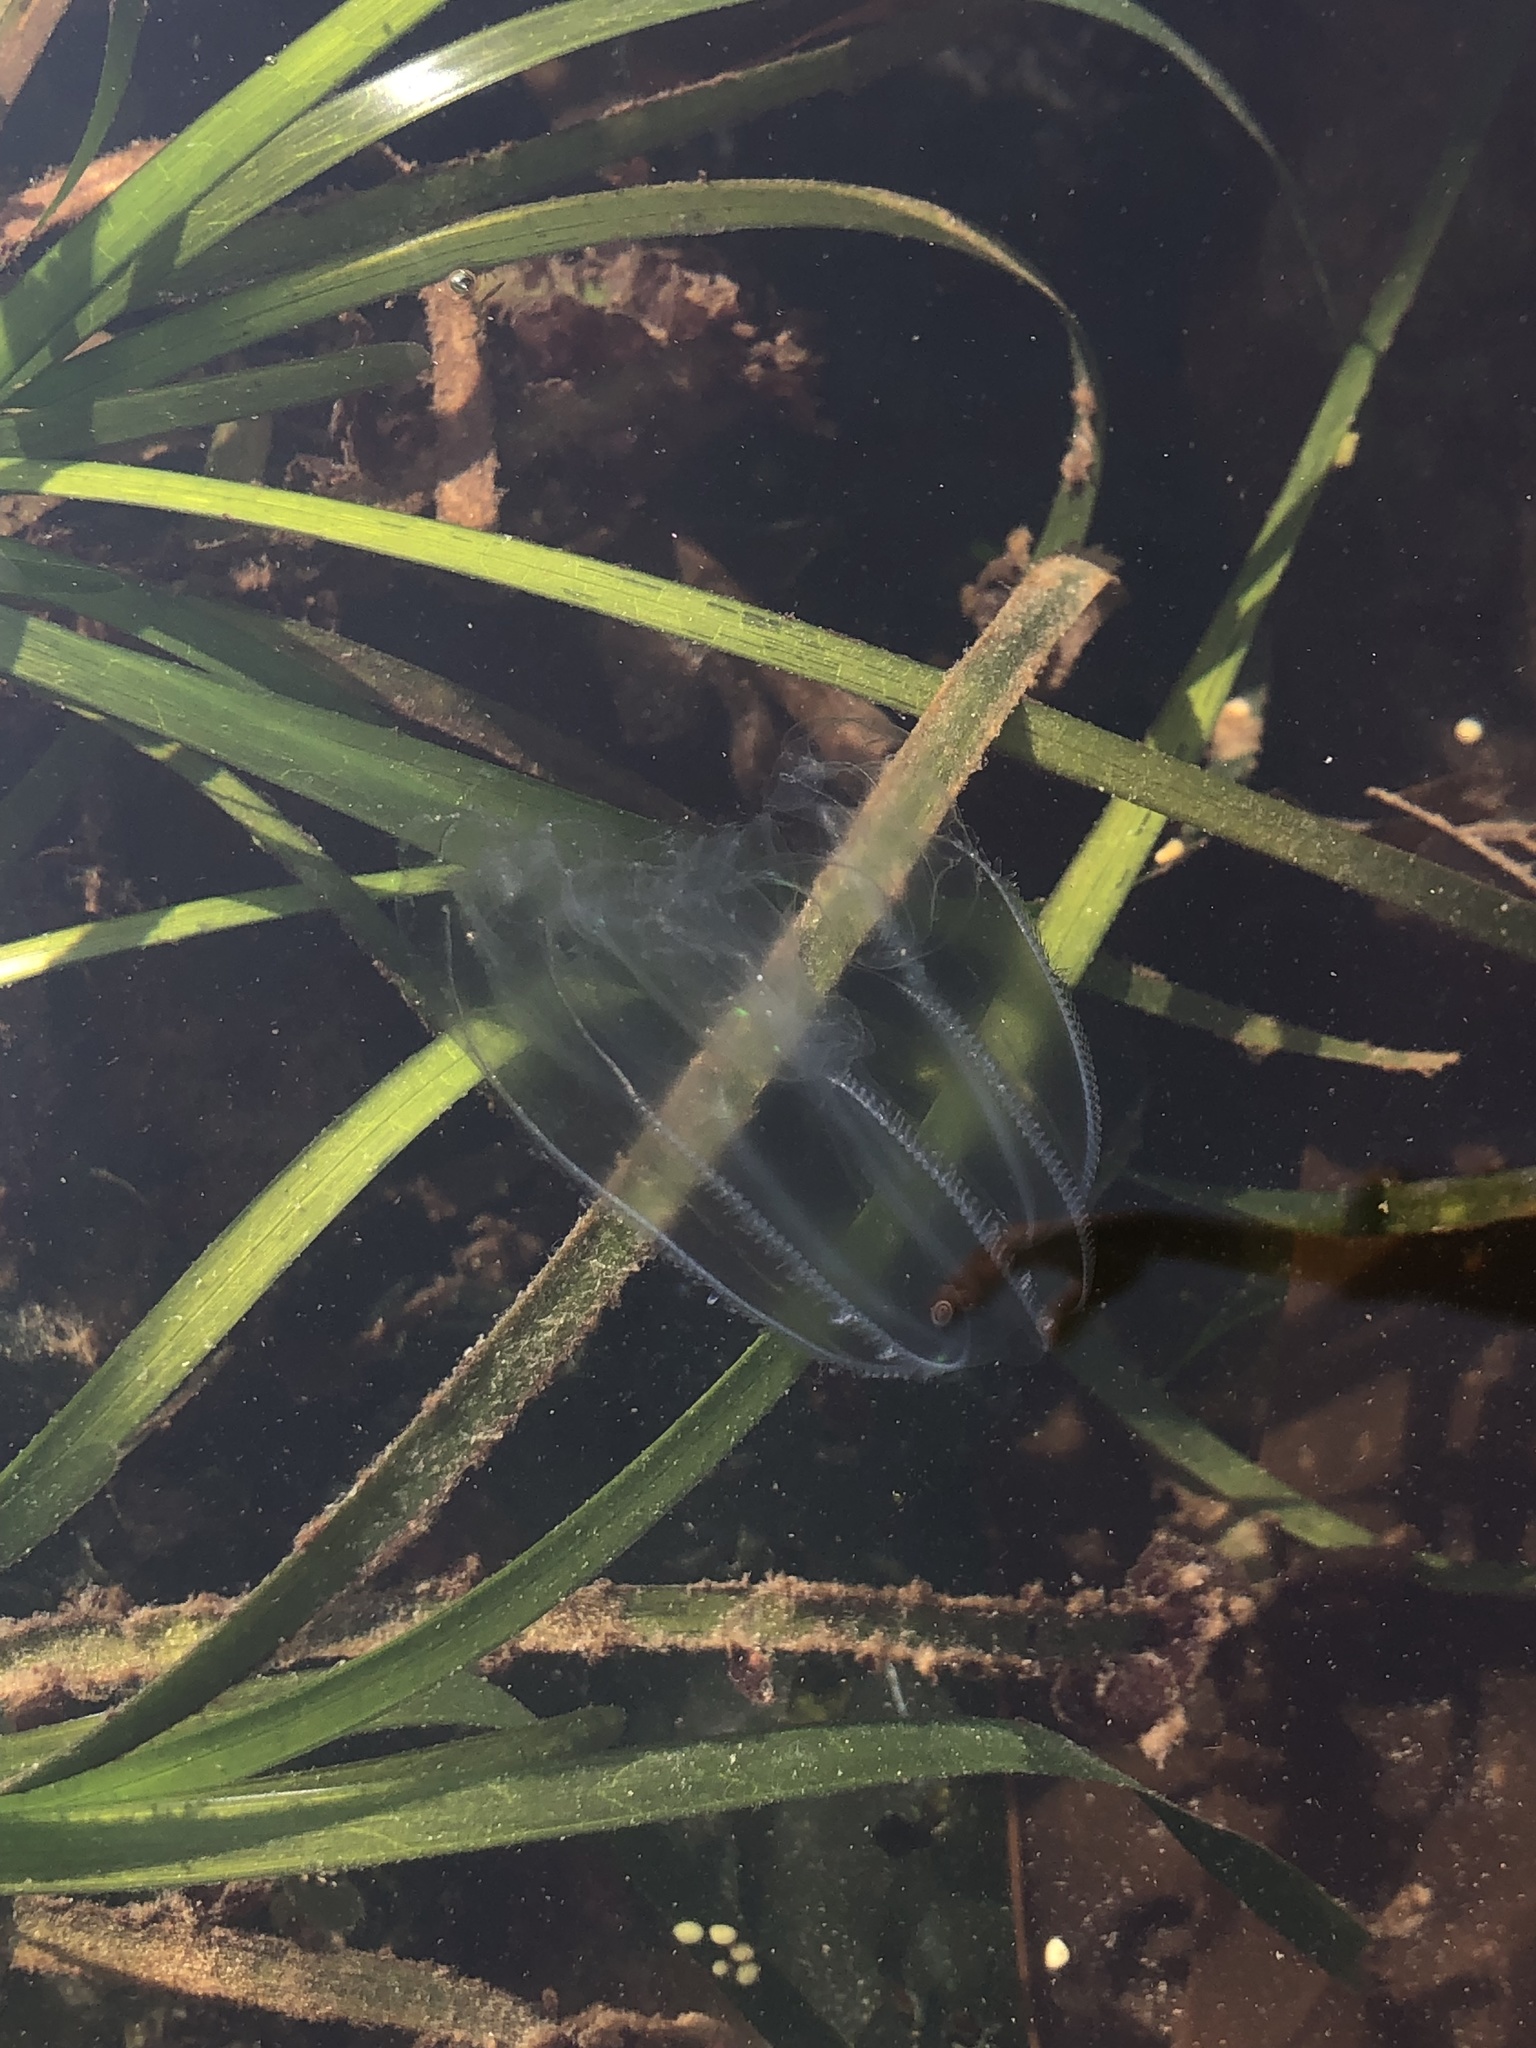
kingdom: Animalia
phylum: Ctenophora
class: Tentaculata
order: Lobata
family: Bolinopsidae
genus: Bolinopsis
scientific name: Bolinopsis microptera
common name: Short-lobed comb jelly
